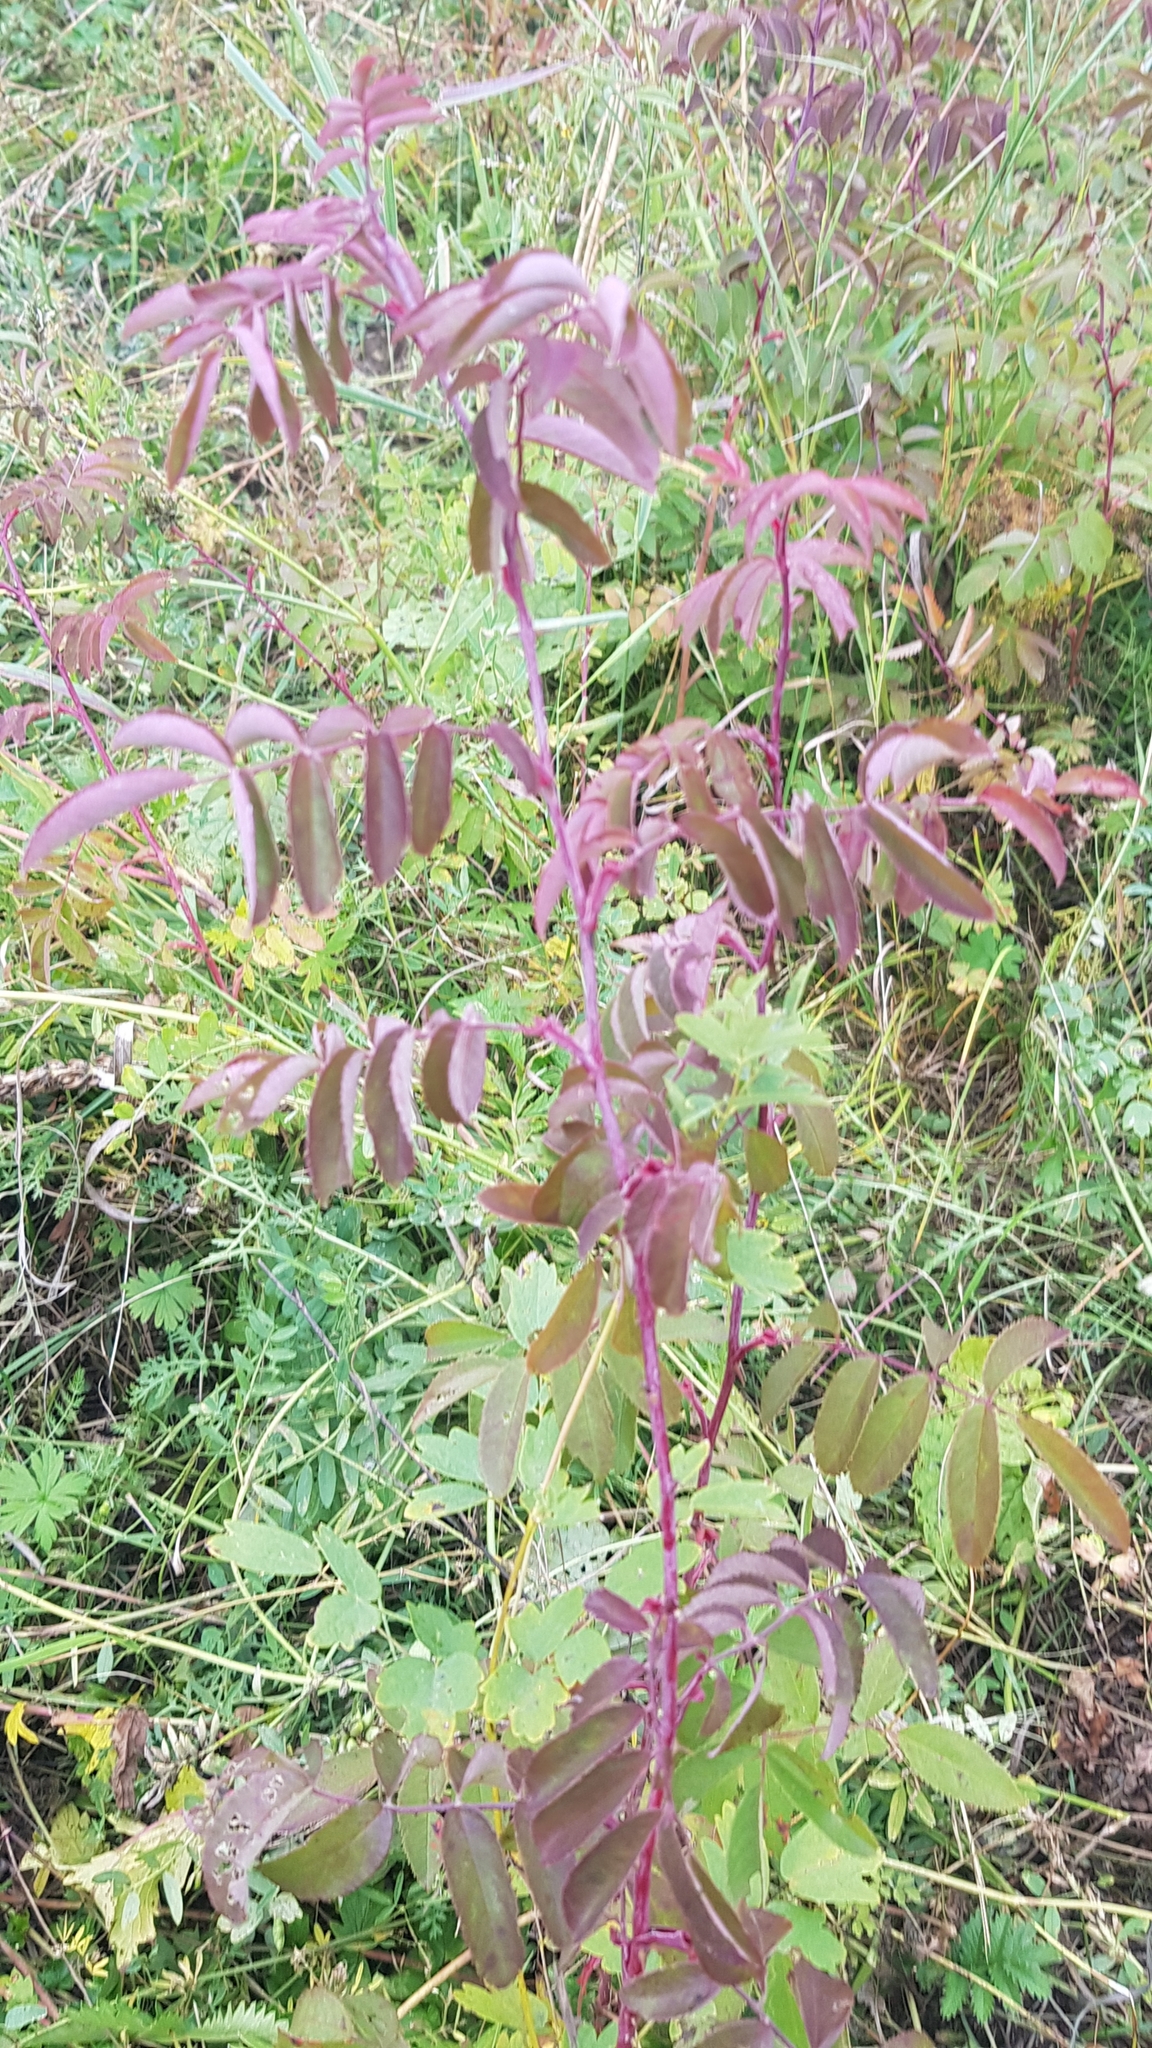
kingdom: Plantae
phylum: Tracheophyta
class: Magnoliopsida
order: Rosales
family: Rosaceae
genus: Rosa
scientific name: Rosa davurica
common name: Amur rose
